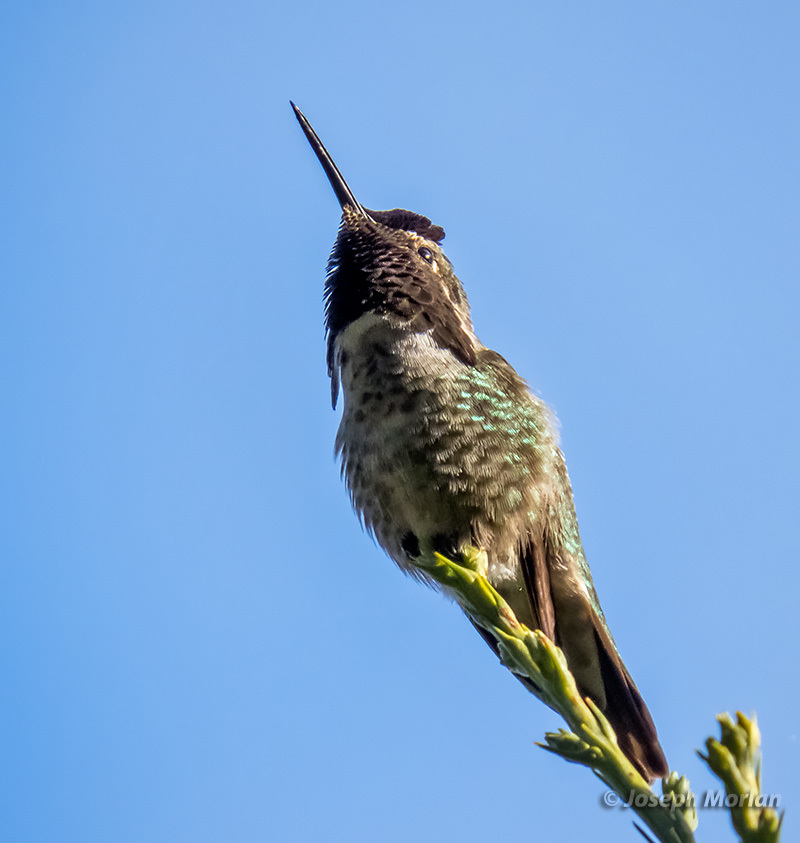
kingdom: Animalia
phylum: Chordata
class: Aves
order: Apodiformes
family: Trochilidae
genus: Calypte
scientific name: Calypte anna
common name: Anna's hummingbird
